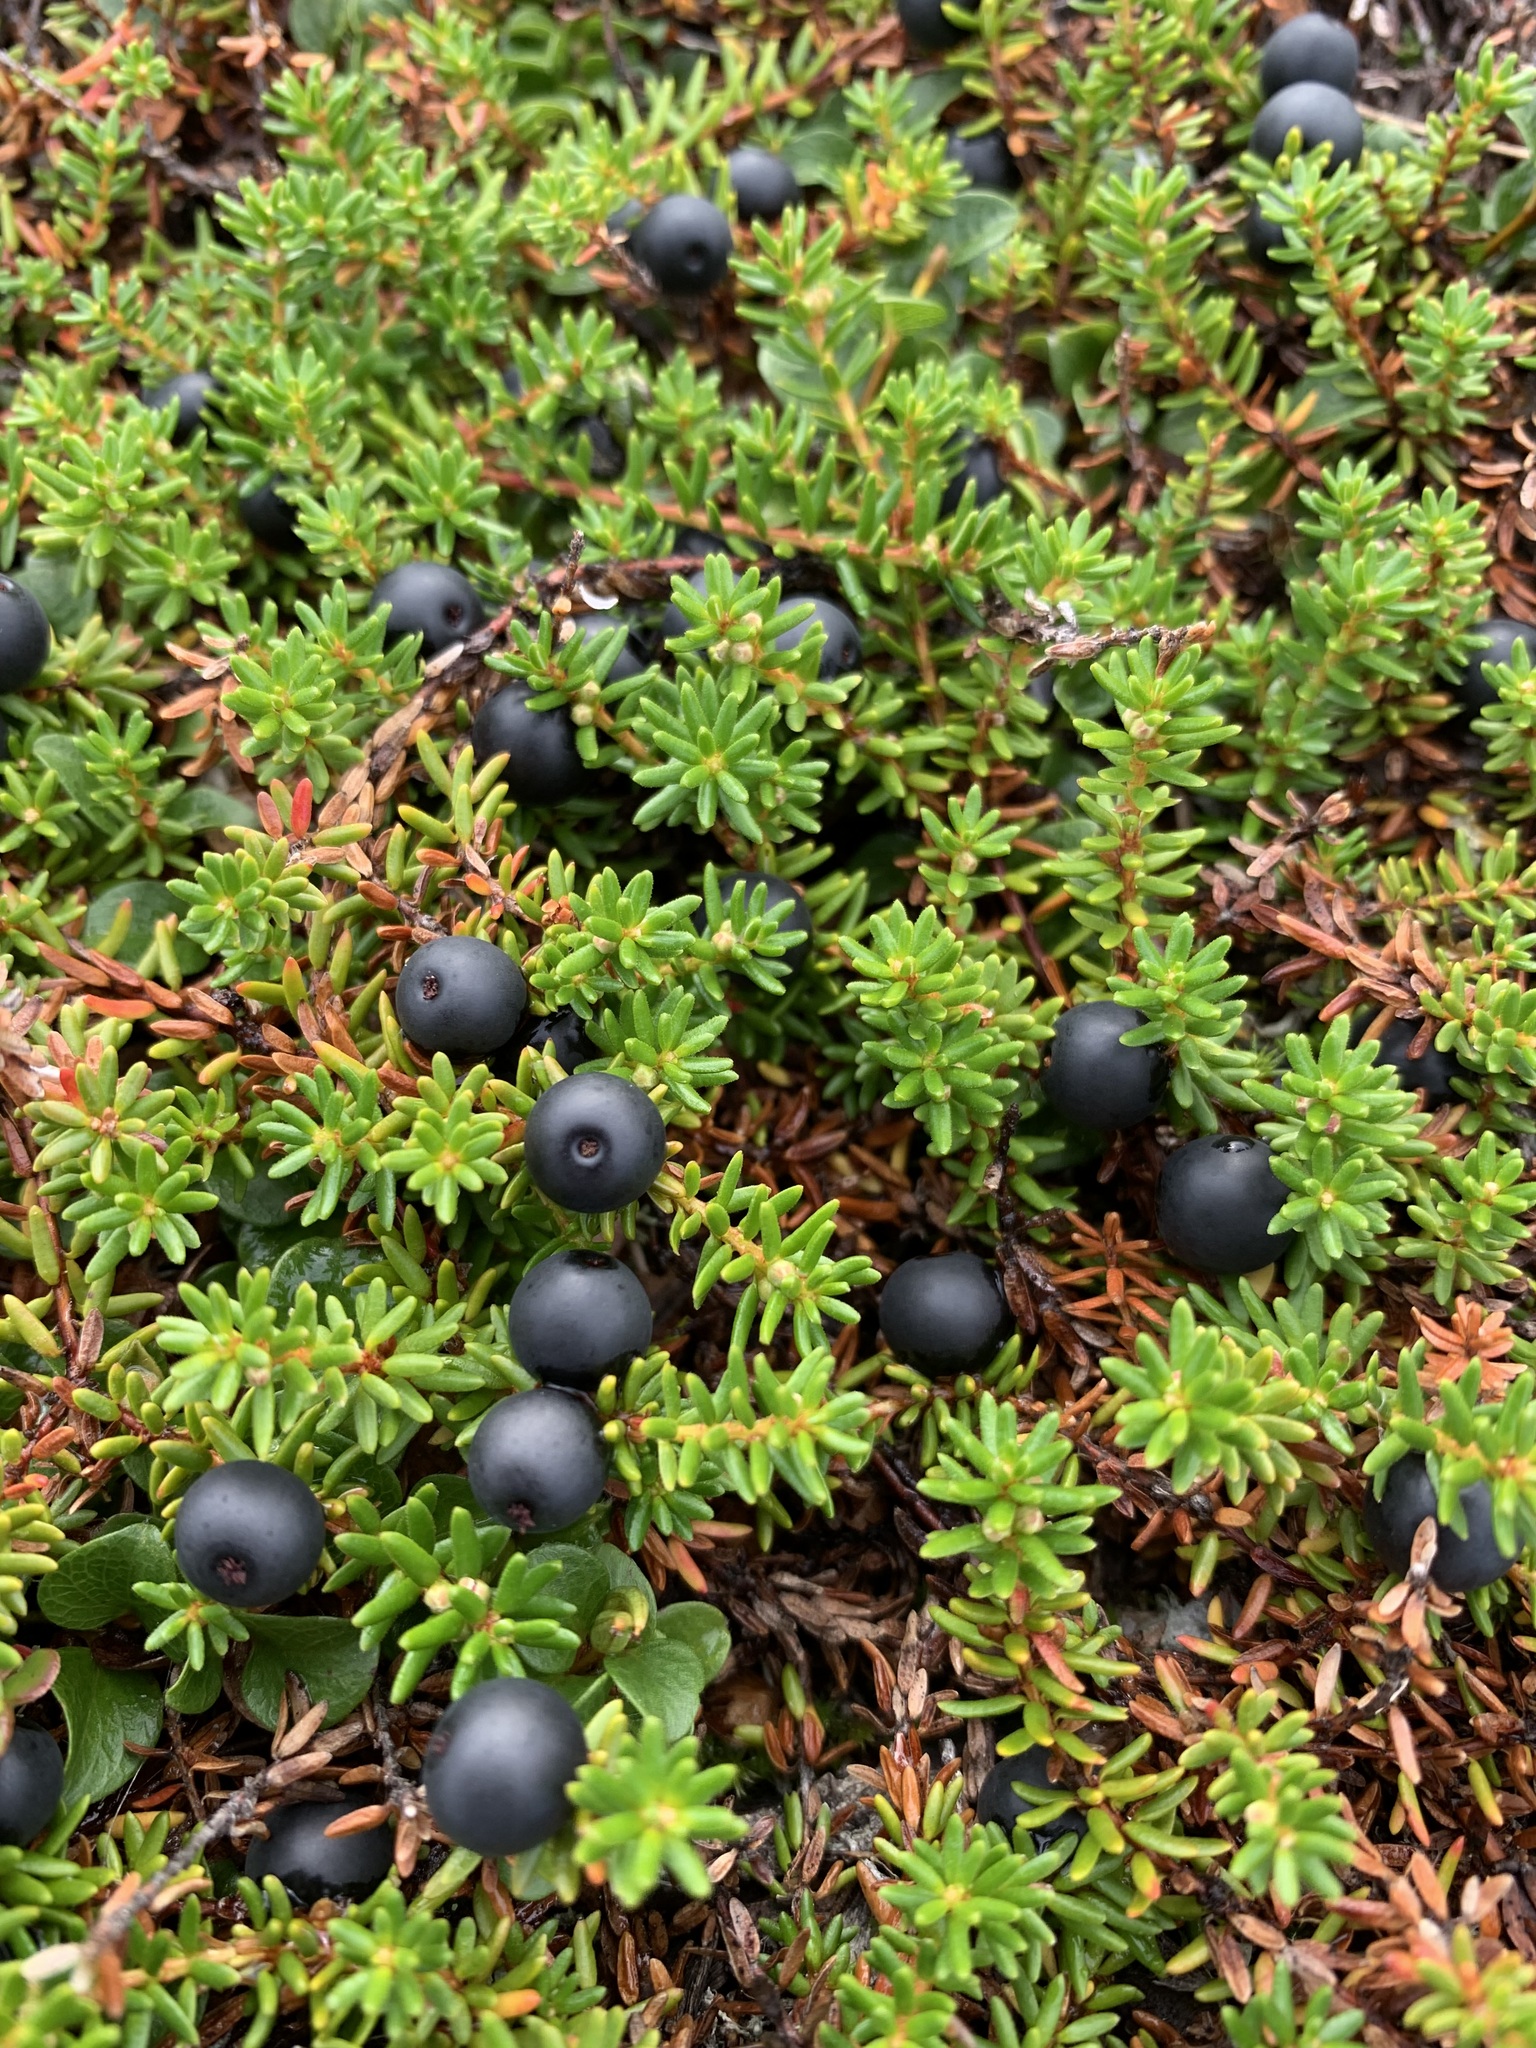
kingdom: Plantae
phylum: Tracheophyta
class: Magnoliopsida
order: Ericales
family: Ericaceae
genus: Empetrum
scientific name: Empetrum nigrum
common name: Black crowberry
